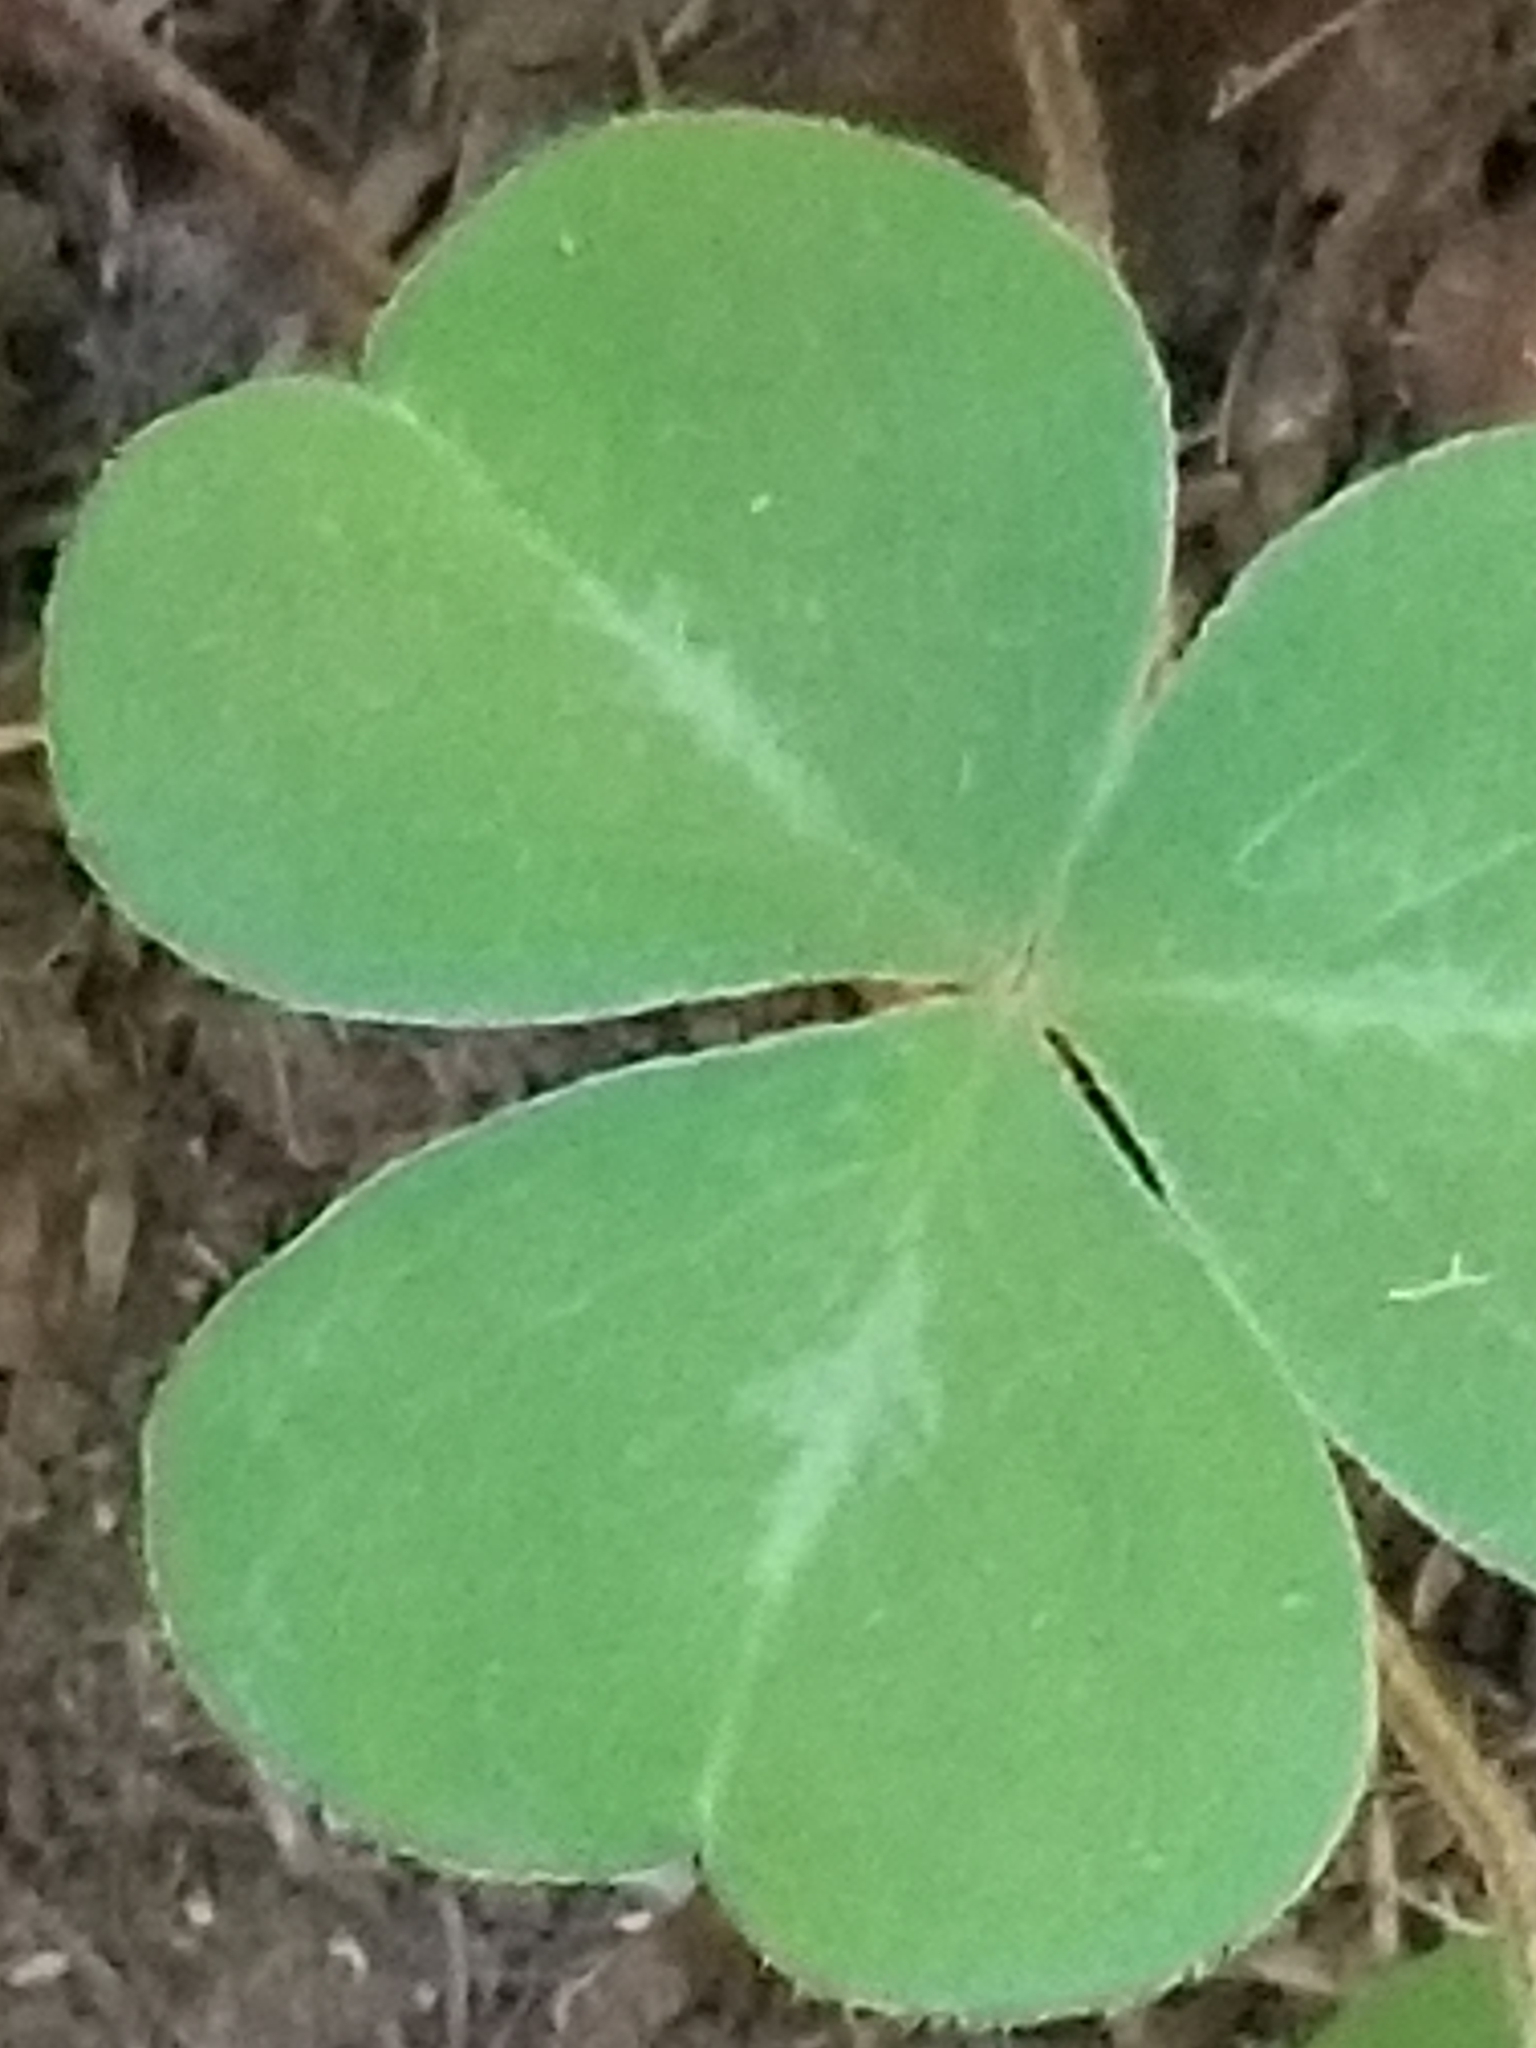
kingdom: Plantae
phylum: Tracheophyta
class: Magnoliopsida
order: Oxalidales
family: Oxalidaceae
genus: Oxalis
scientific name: Oxalis oregana
